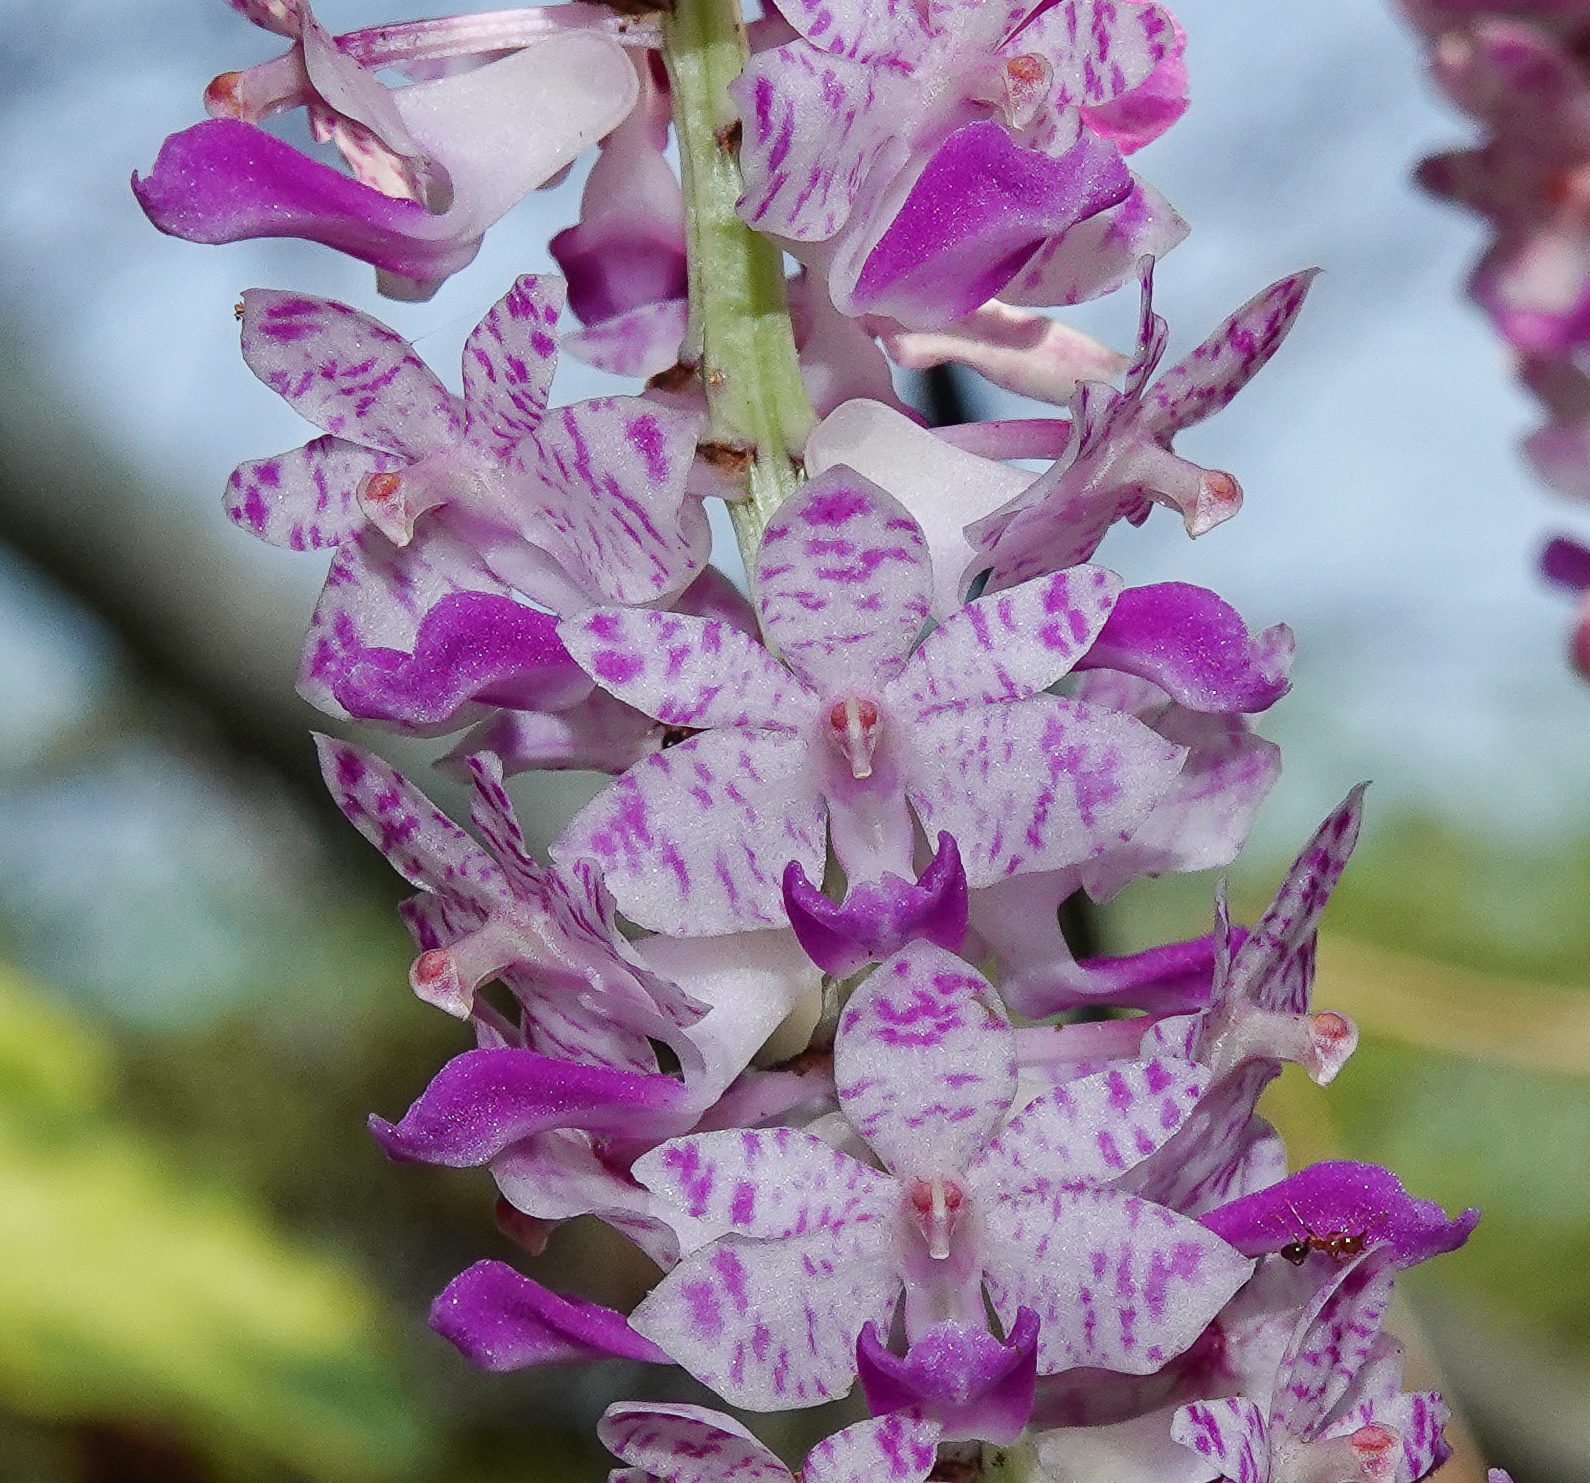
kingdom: Plantae
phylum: Tracheophyta
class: Liliopsida
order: Asparagales
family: Orchidaceae
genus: Rhynchostylis
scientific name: Rhynchostylis retusa
